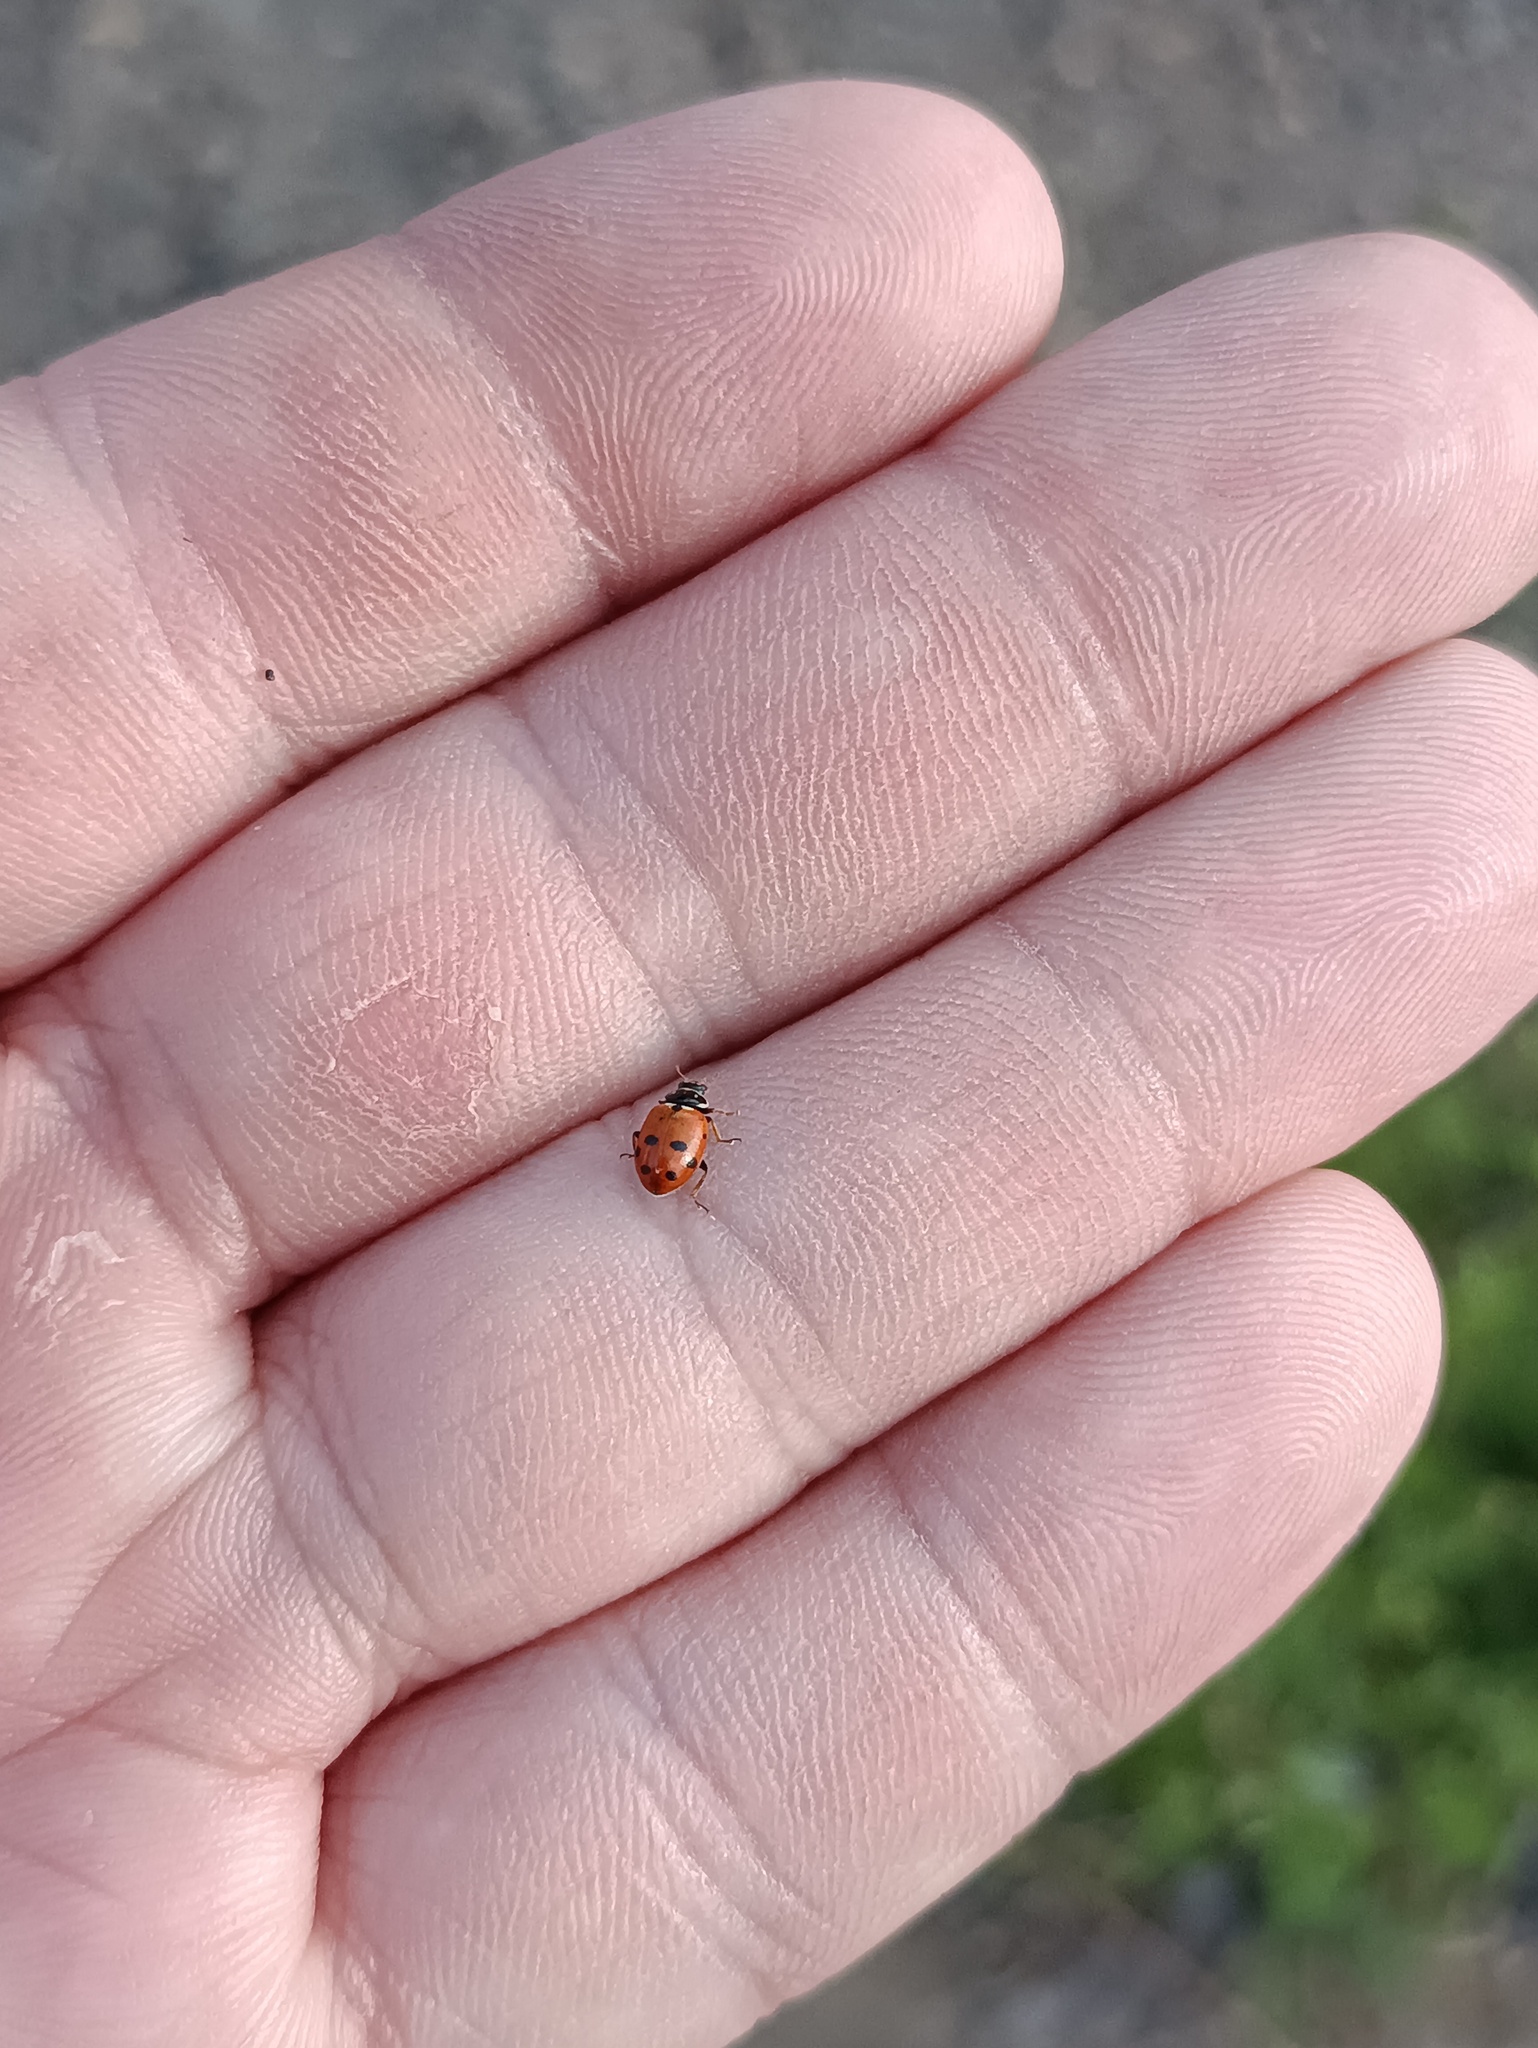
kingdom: Animalia
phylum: Arthropoda
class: Insecta
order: Coleoptera
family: Coccinellidae
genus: Hippodamia
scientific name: Hippodamia variegata
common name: Ladybird beetle
